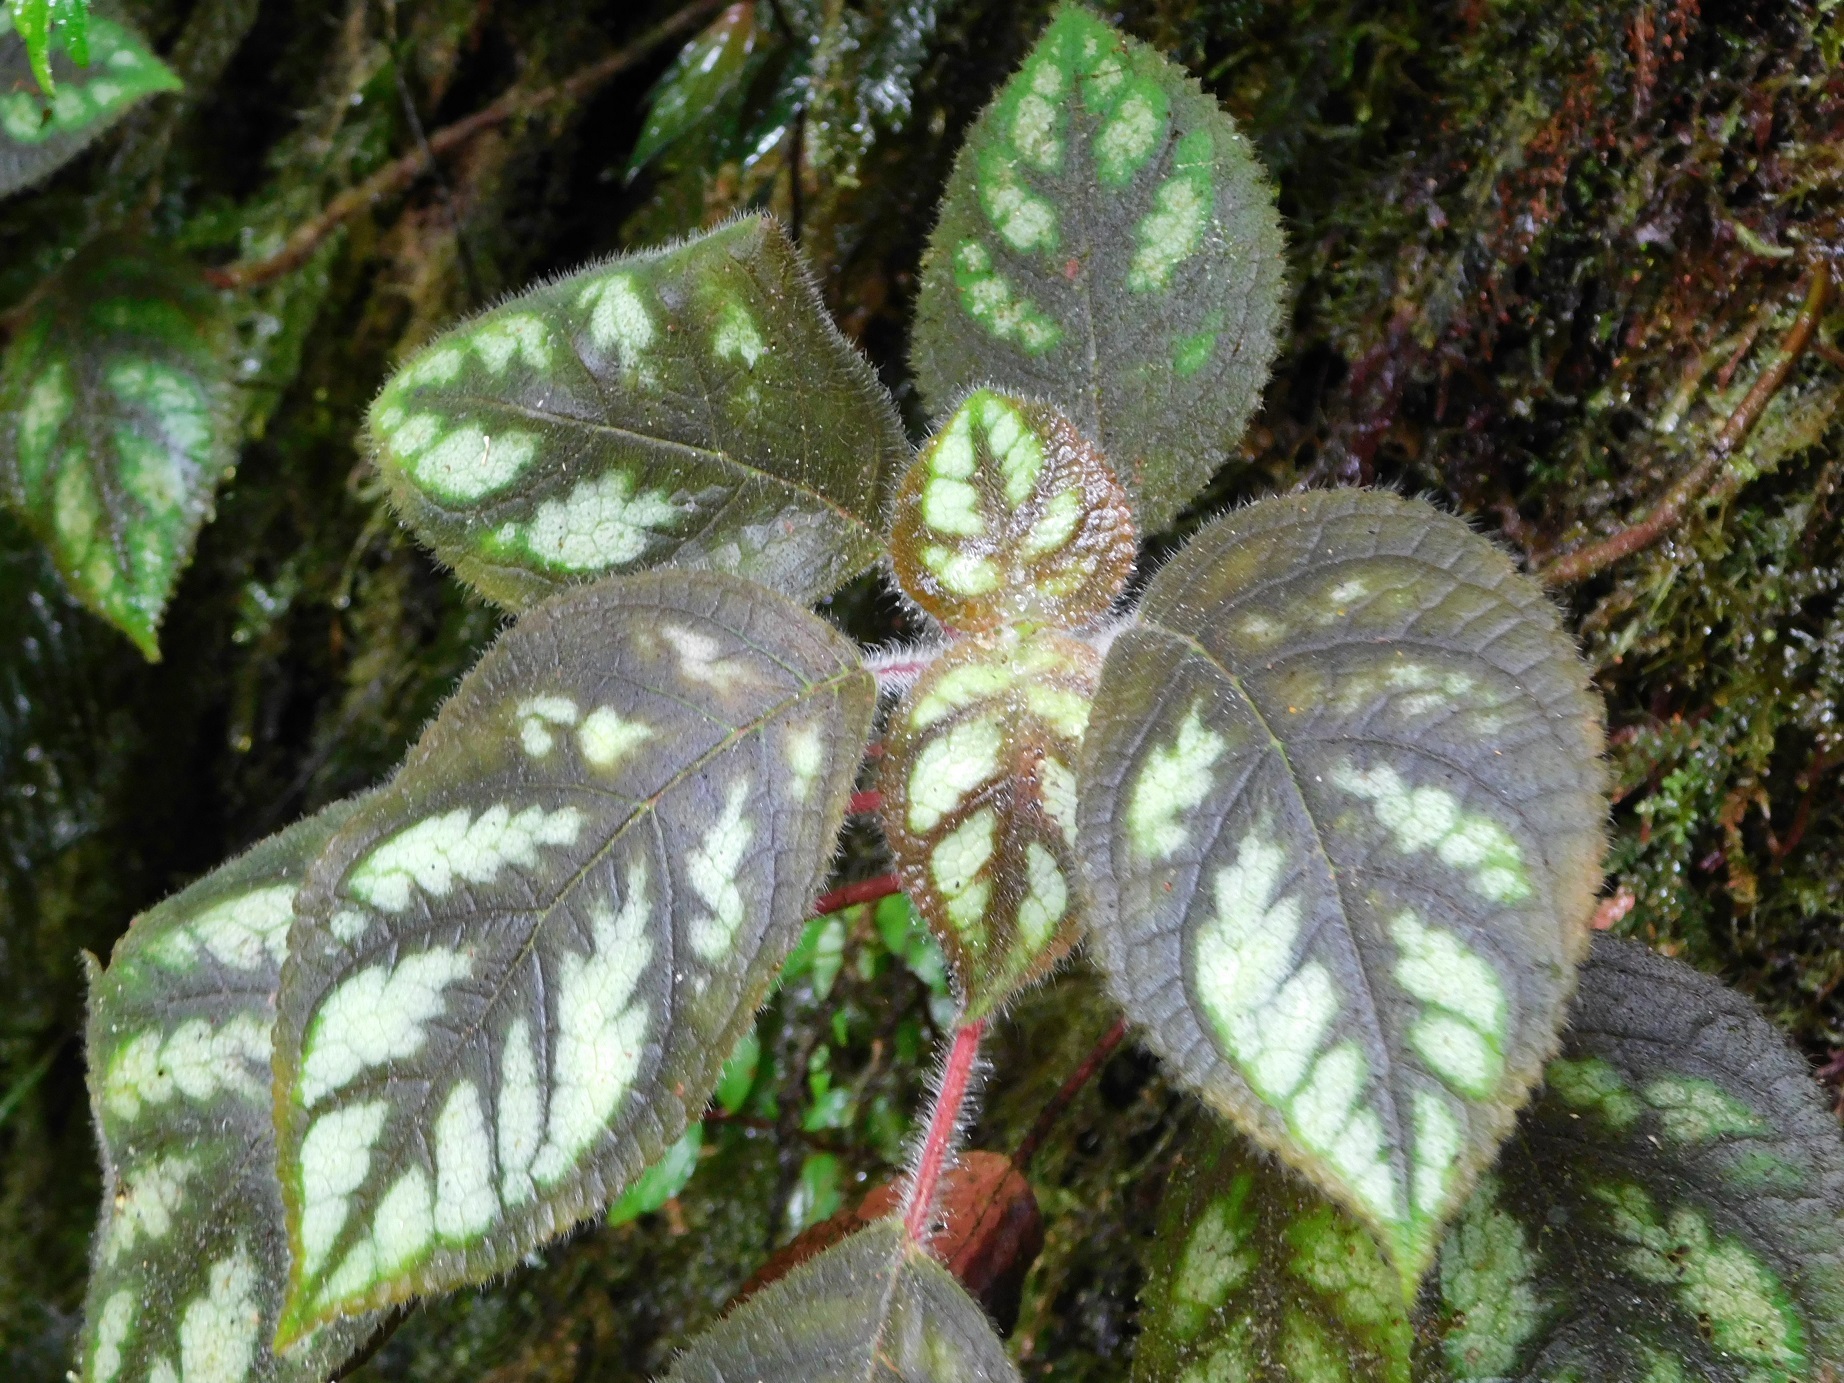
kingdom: Plantae
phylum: Tracheophyta
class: Magnoliopsida
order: Lamiales
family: Gesneriaceae
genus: Kohleria
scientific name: Kohleria amabilis
